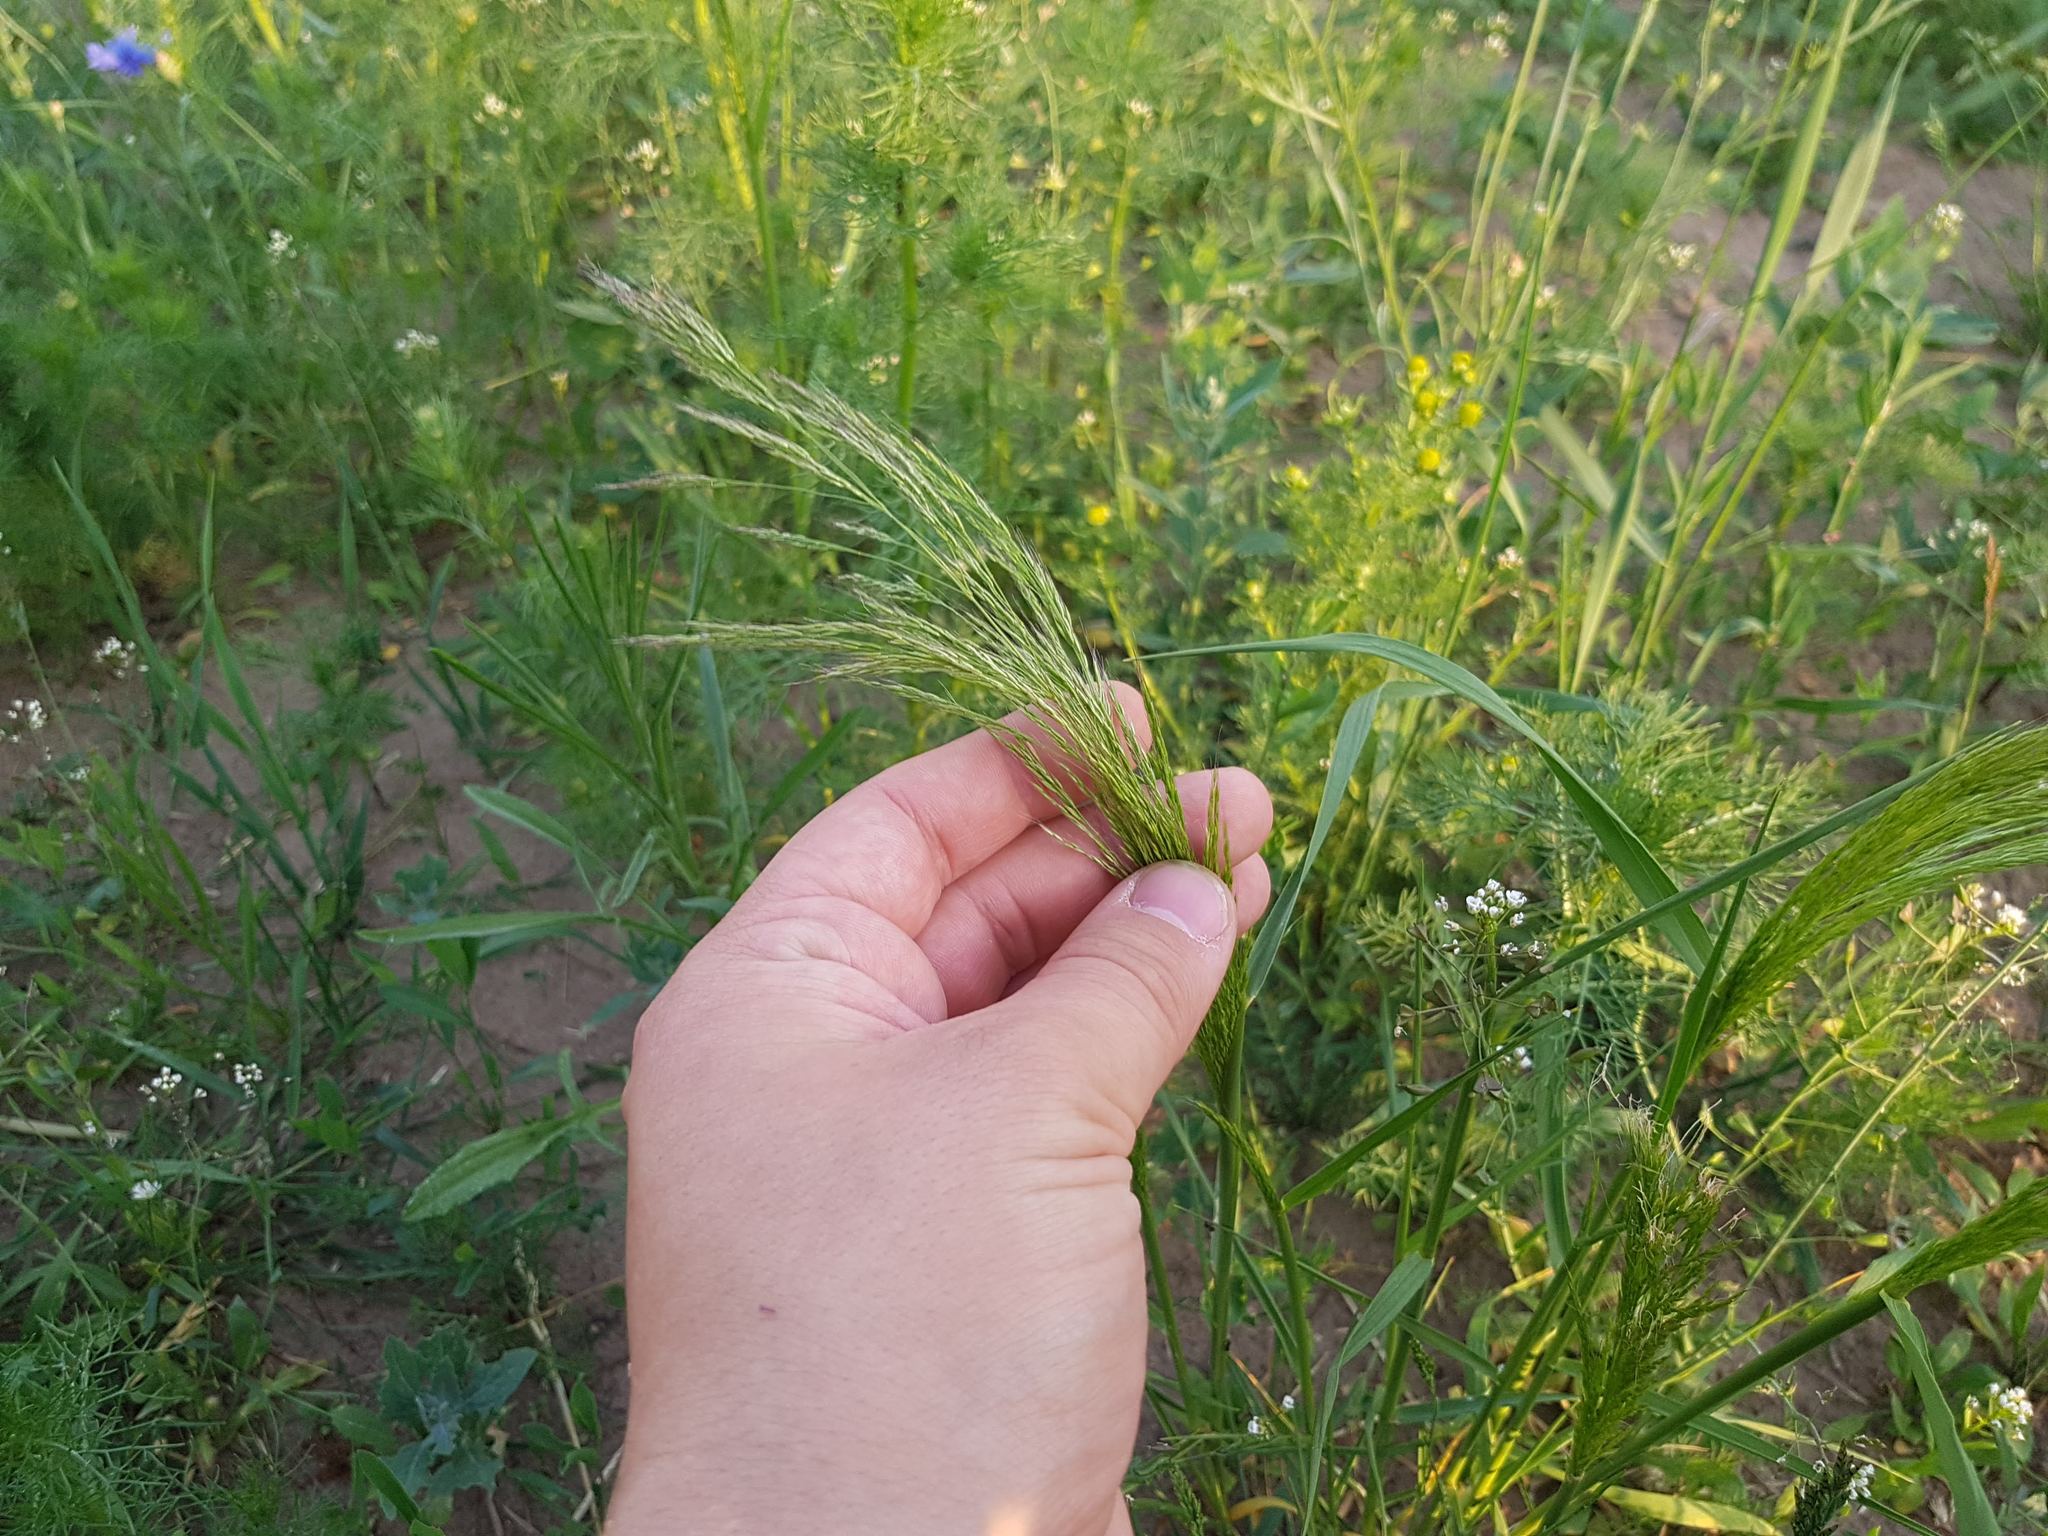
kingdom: Plantae
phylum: Tracheophyta
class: Liliopsida
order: Poales
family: Poaceae
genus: Apera
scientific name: Apera spica-venti
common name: Loose silky-bent
